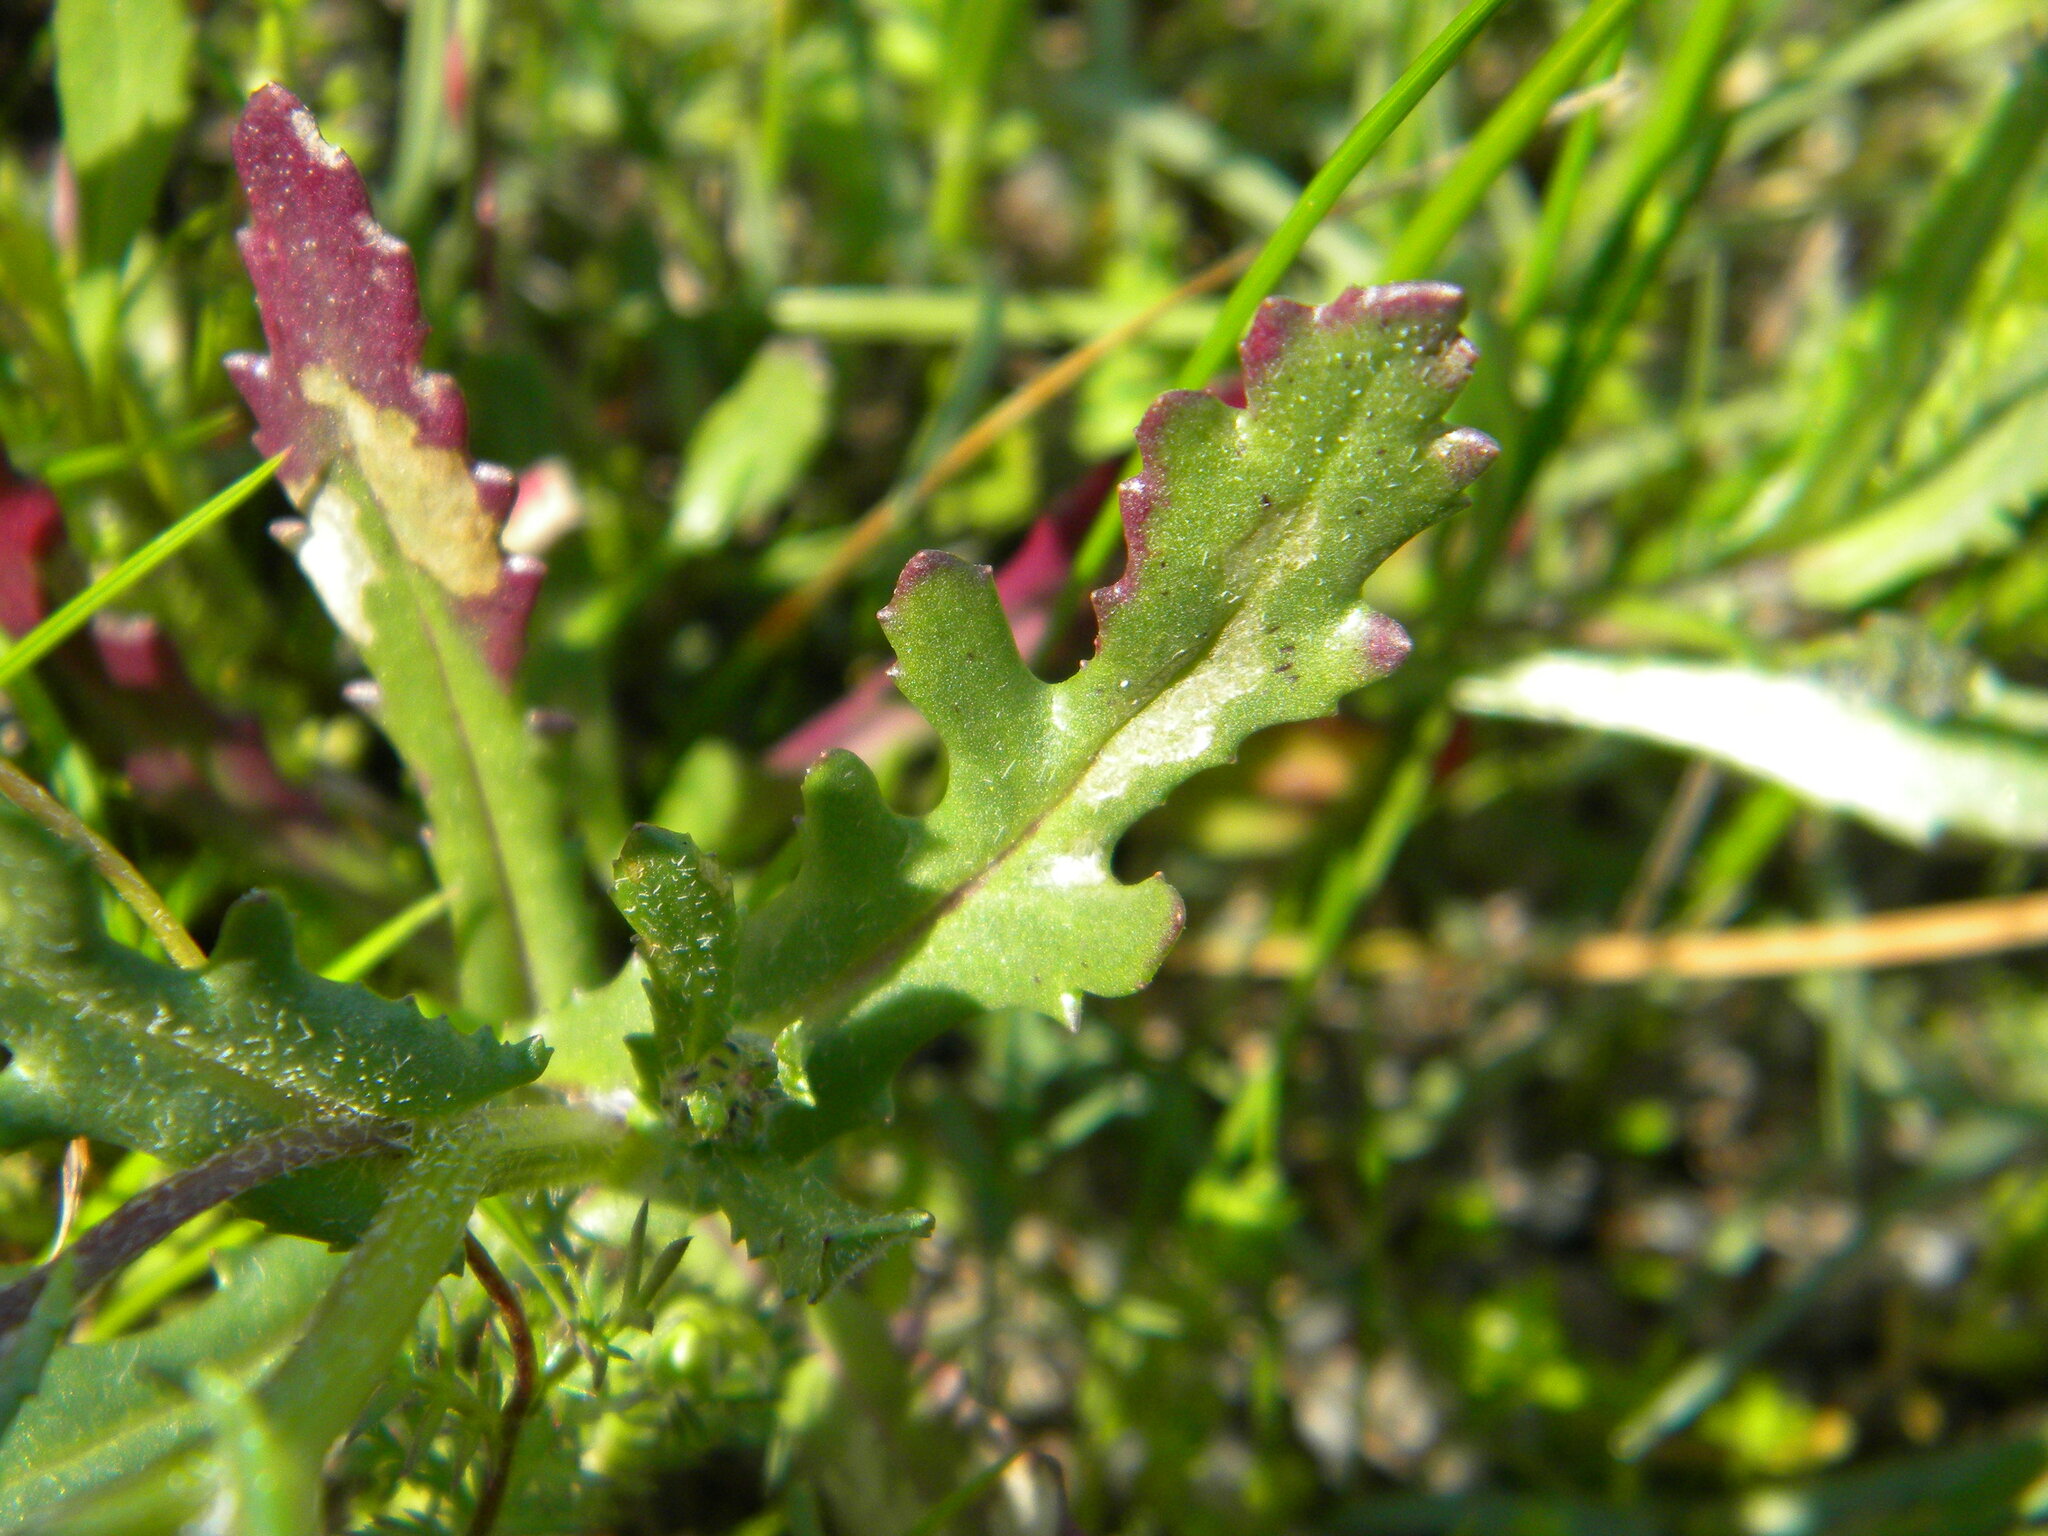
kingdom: Plantae
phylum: Tracheophyta
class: Magnoliopsida
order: Asterales
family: Asteraceae
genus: Senecio
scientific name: Senecio littoreus
